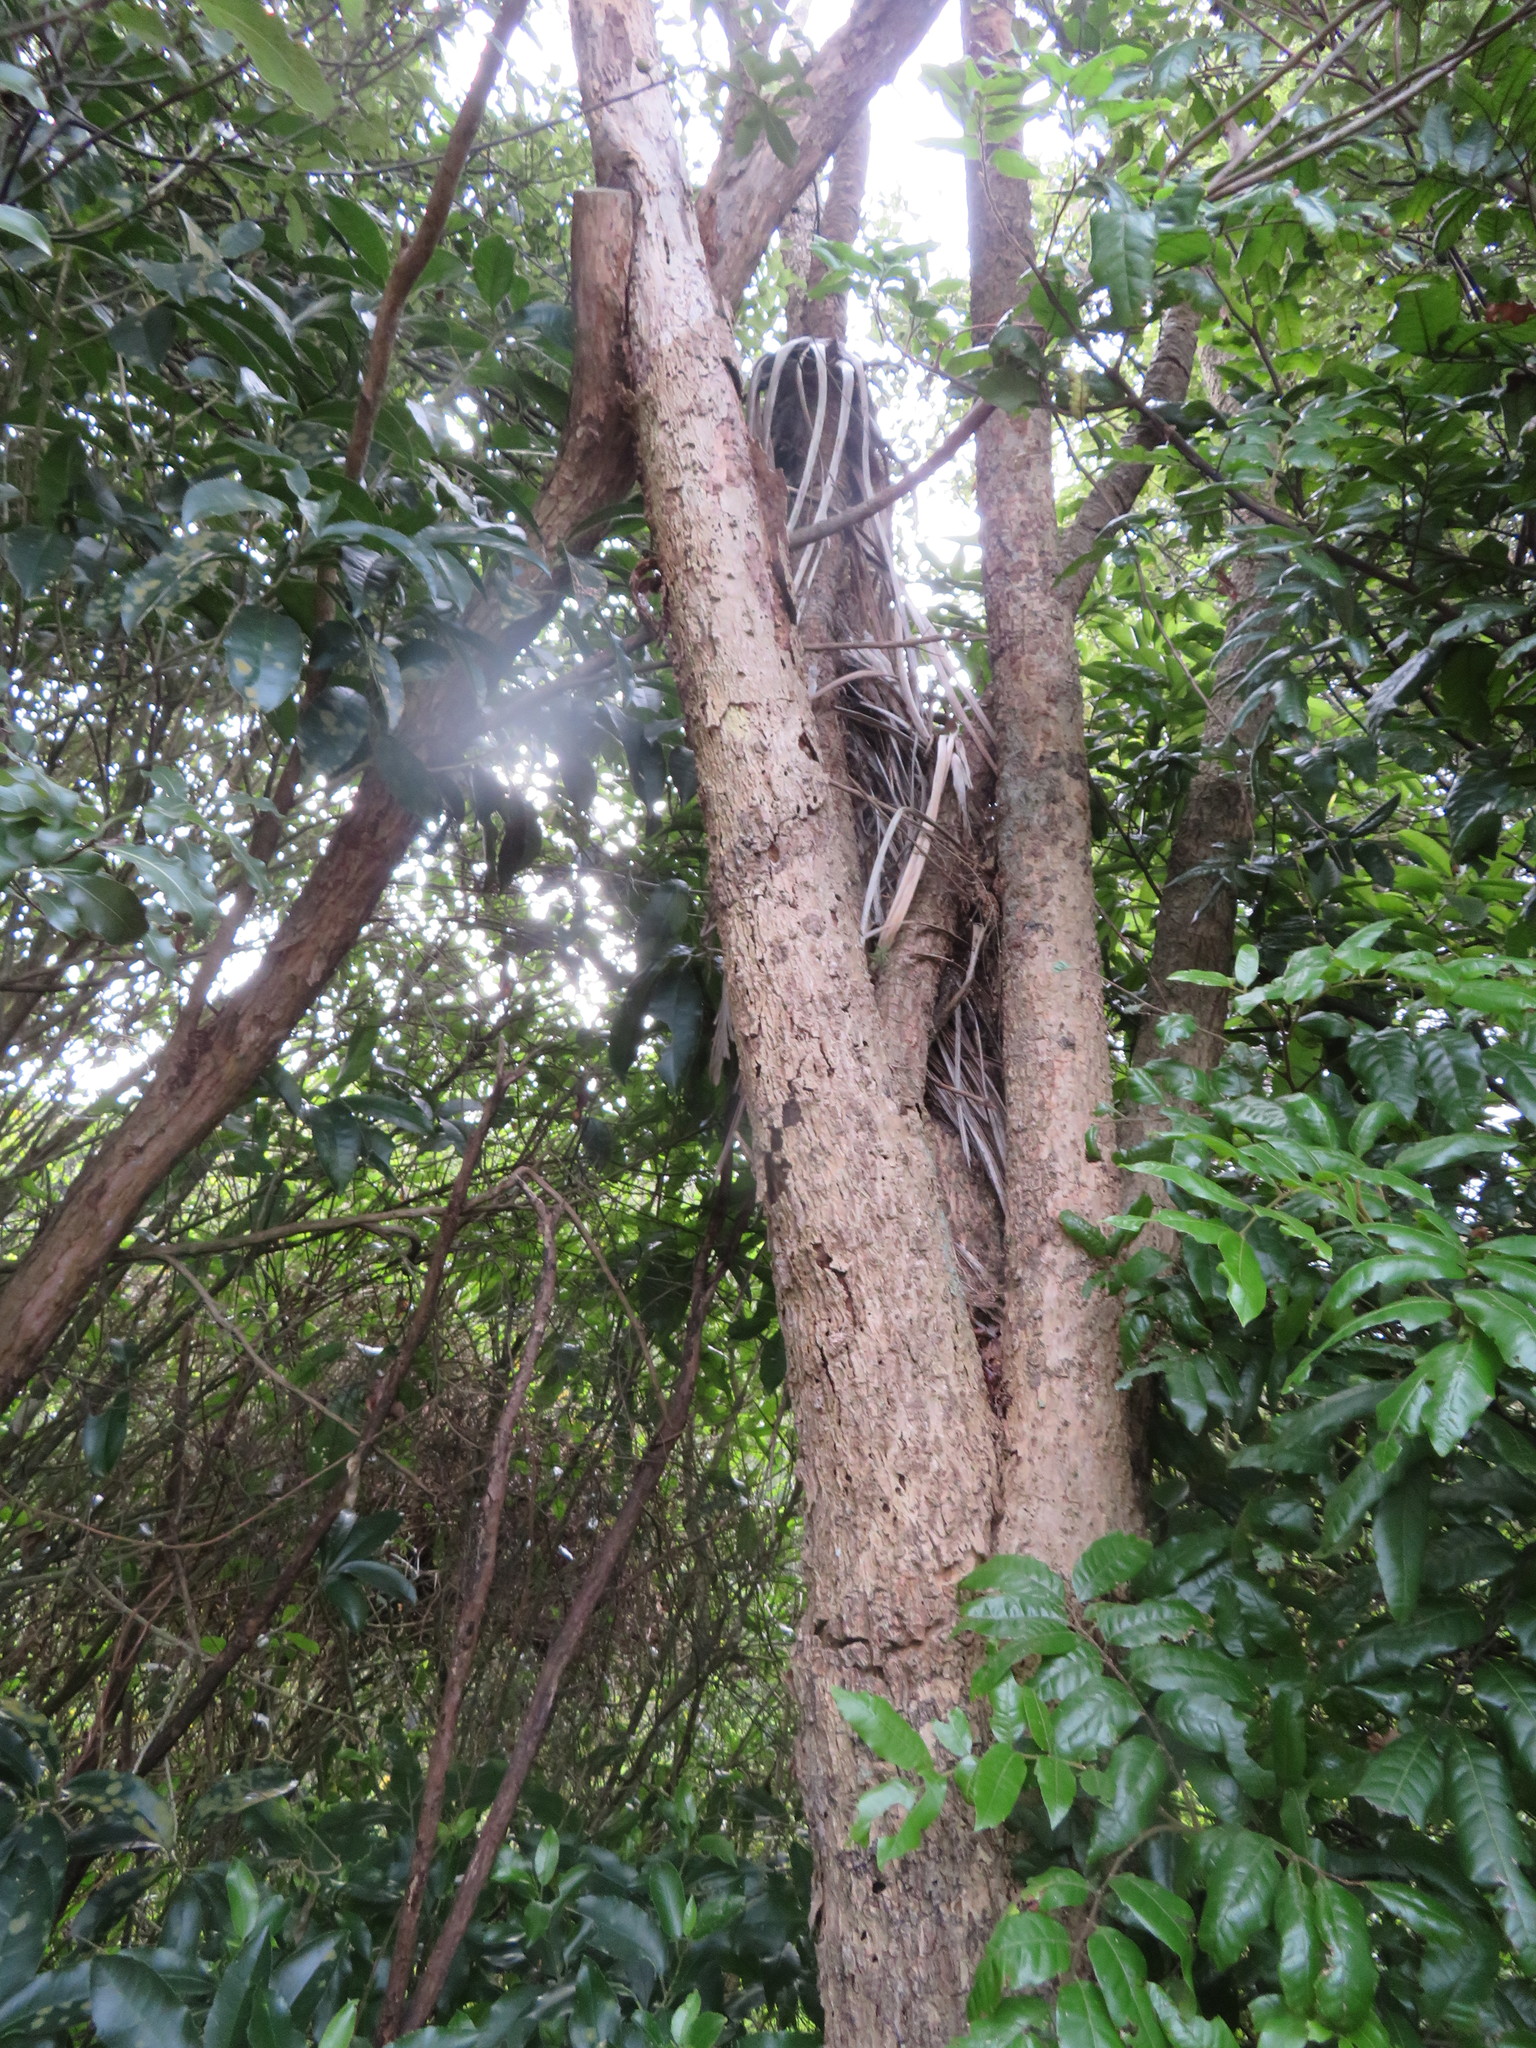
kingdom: Plantae
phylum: Tracheophyta
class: Liliopsida
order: Asparagales
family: Asparagaceae
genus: Cordyline
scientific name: Cordyline australis
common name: Cabbage-palm
